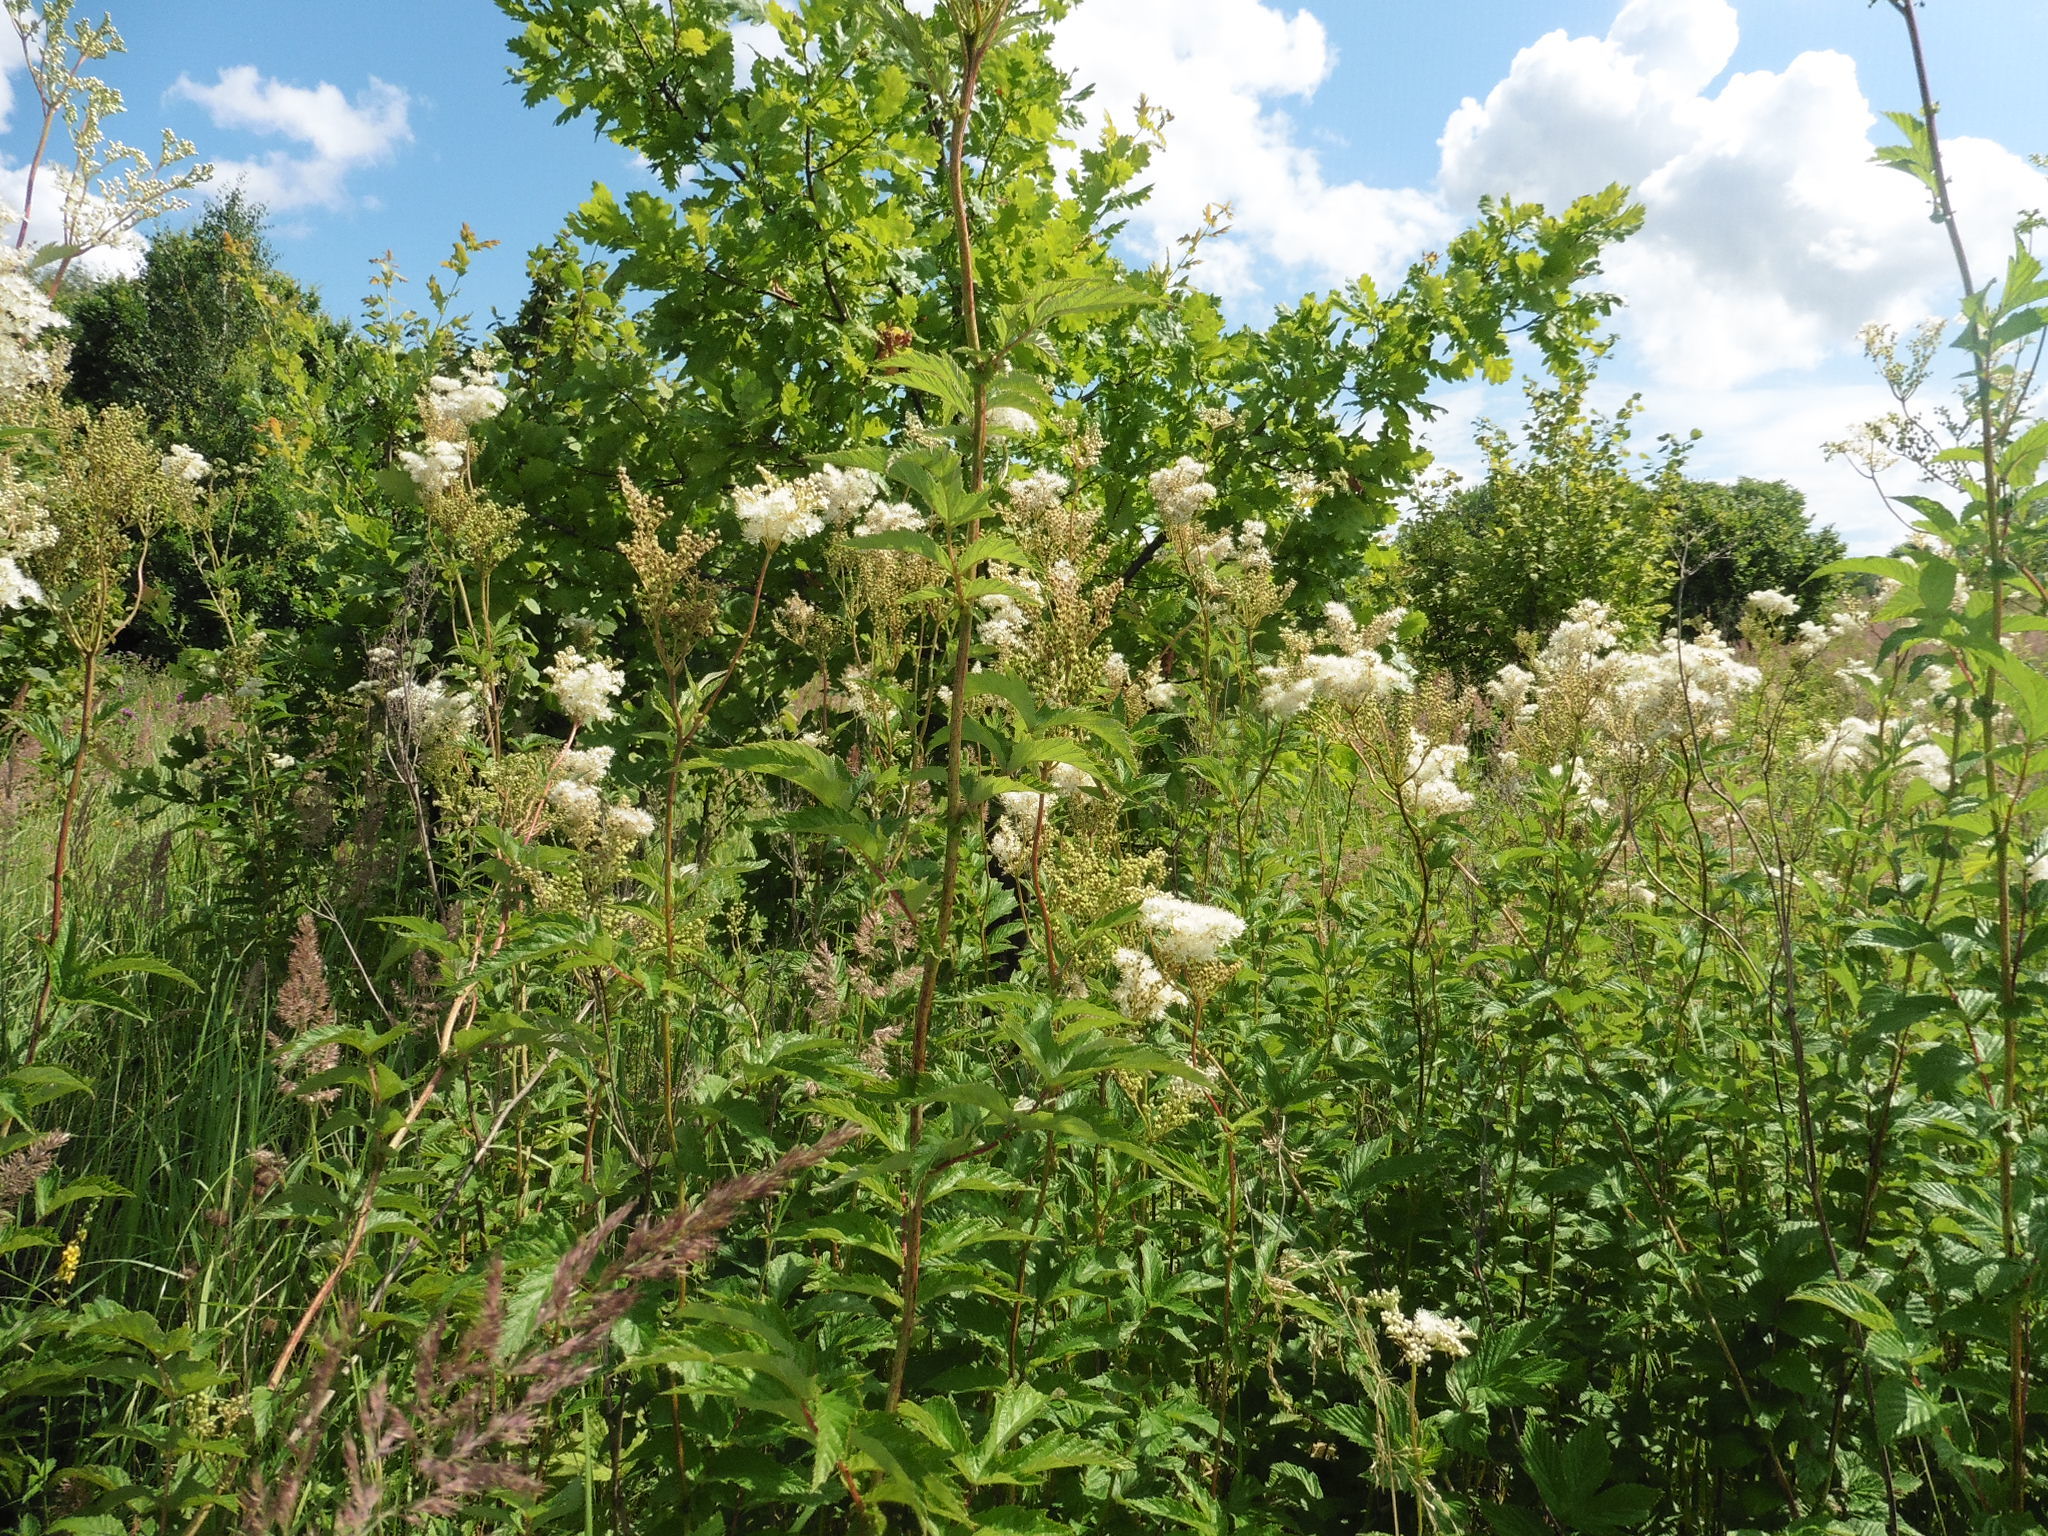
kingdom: Plantae
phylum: Tracheophyta
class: Magnoliopsida
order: Rosales
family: Rosaceae
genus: Filipendula
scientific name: Filipendula ulmaria
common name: Meadowsweet
